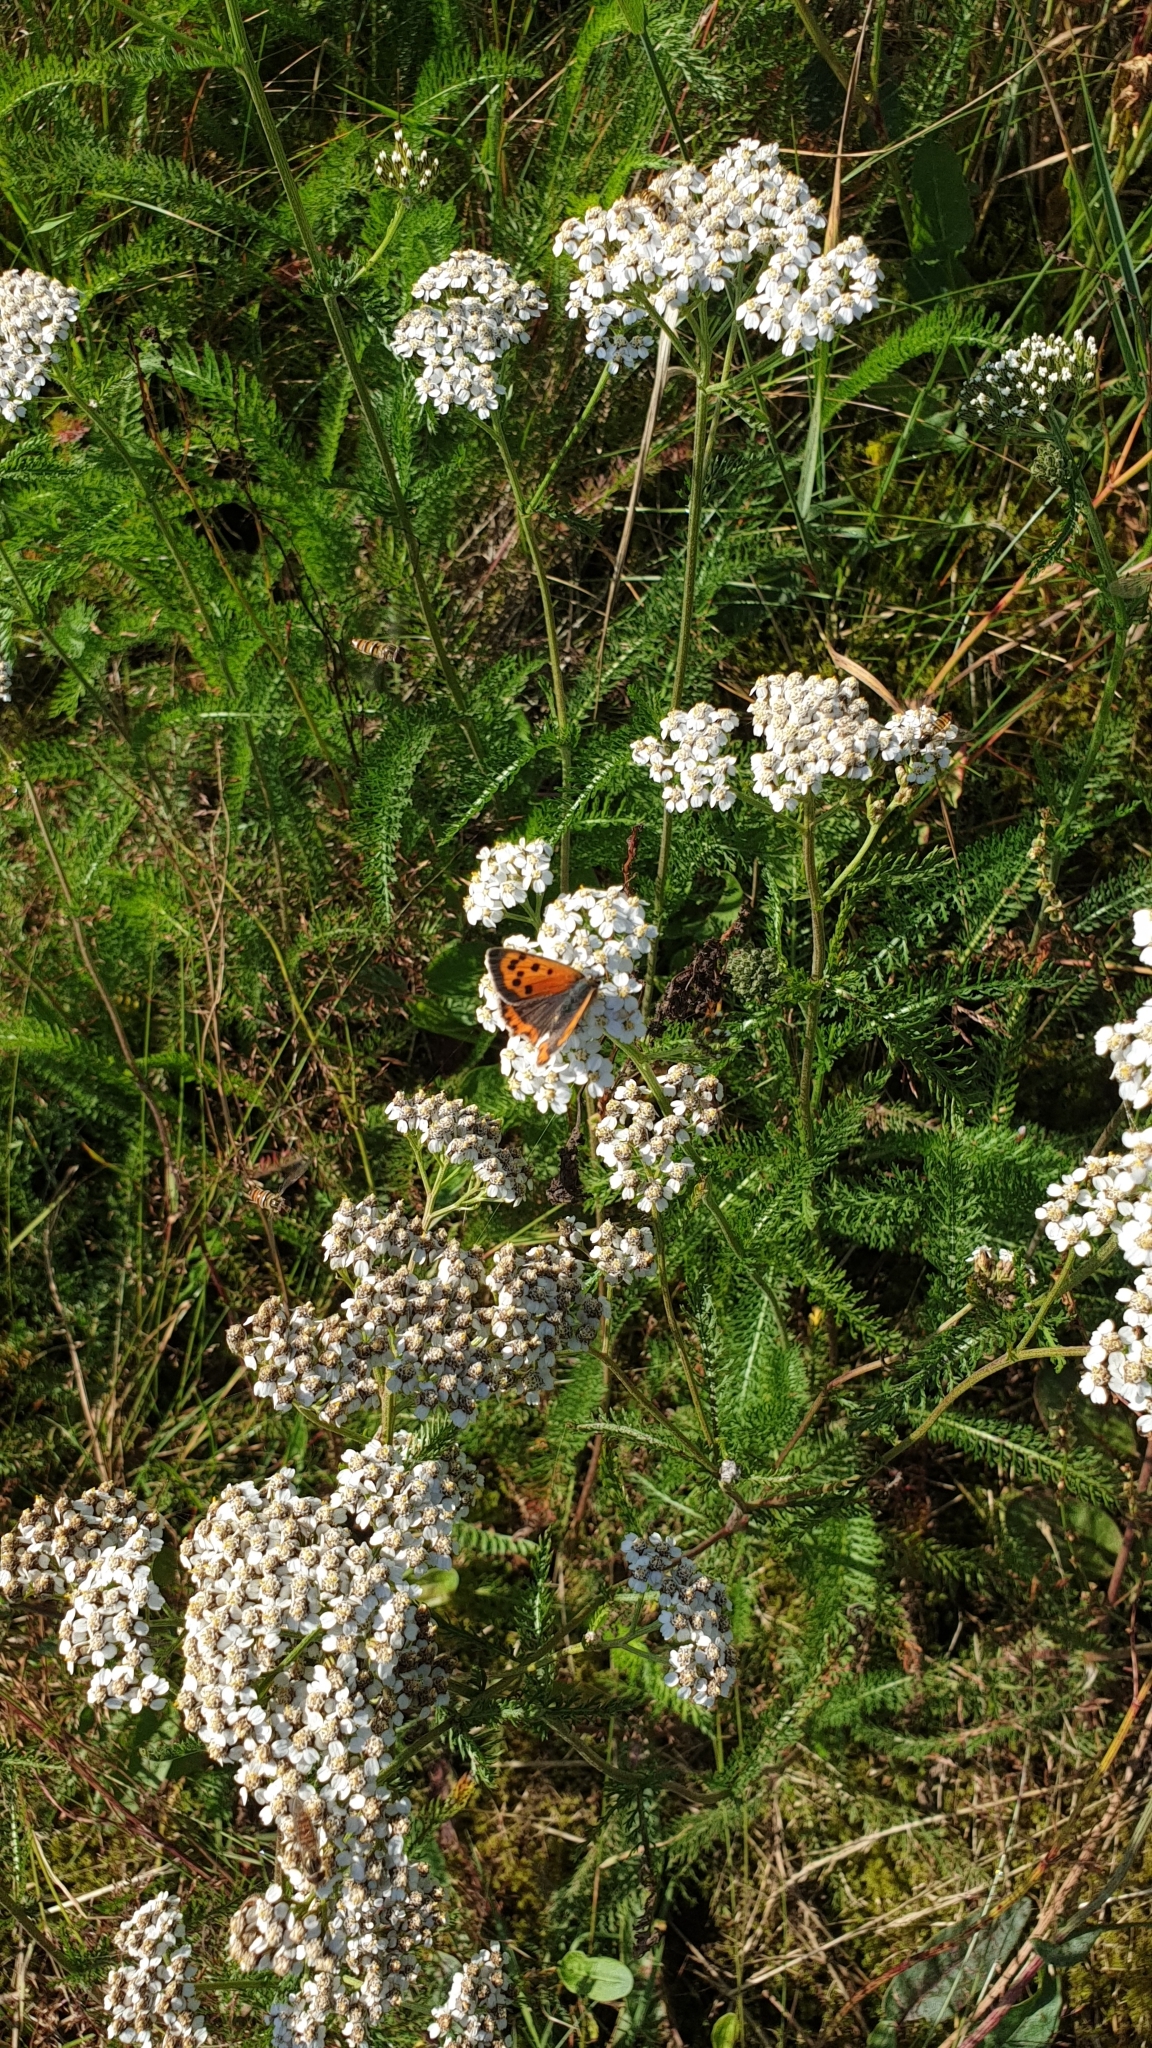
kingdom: Animalia
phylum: Arthropoda
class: Insecta
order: Lepidoptera
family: Lycaenidae
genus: Lycaena
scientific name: Lycaena phlaeas
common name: Small copper
